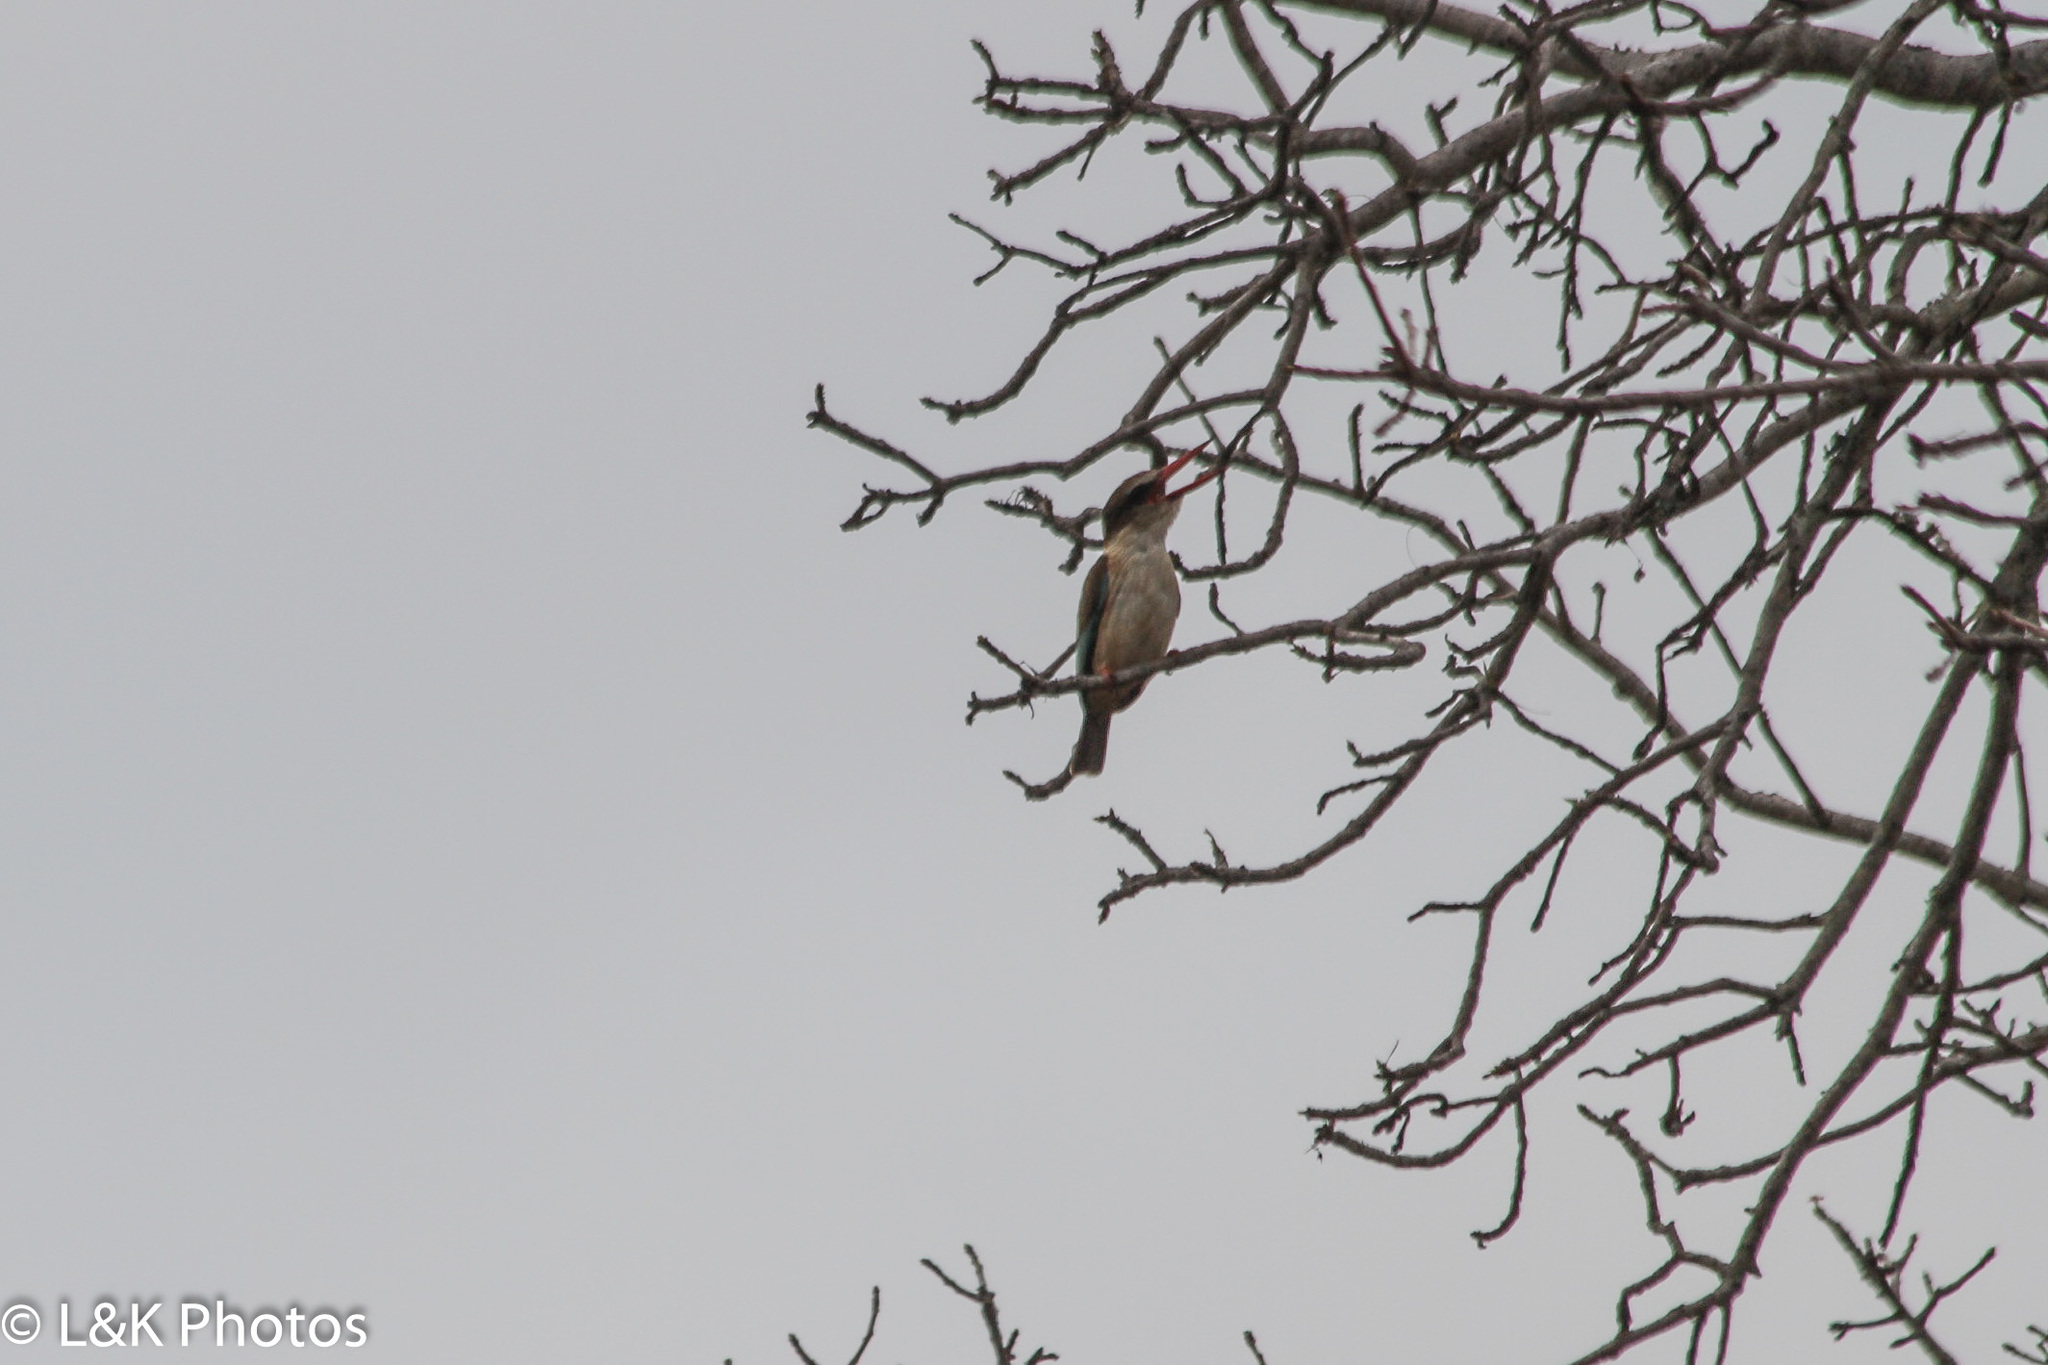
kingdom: Animalia
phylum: Chordata
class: Aves
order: Coraciiformes
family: Alcedinidae
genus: Halcyon
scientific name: Halcyon albiventris
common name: Brown-hooded kingfisher
